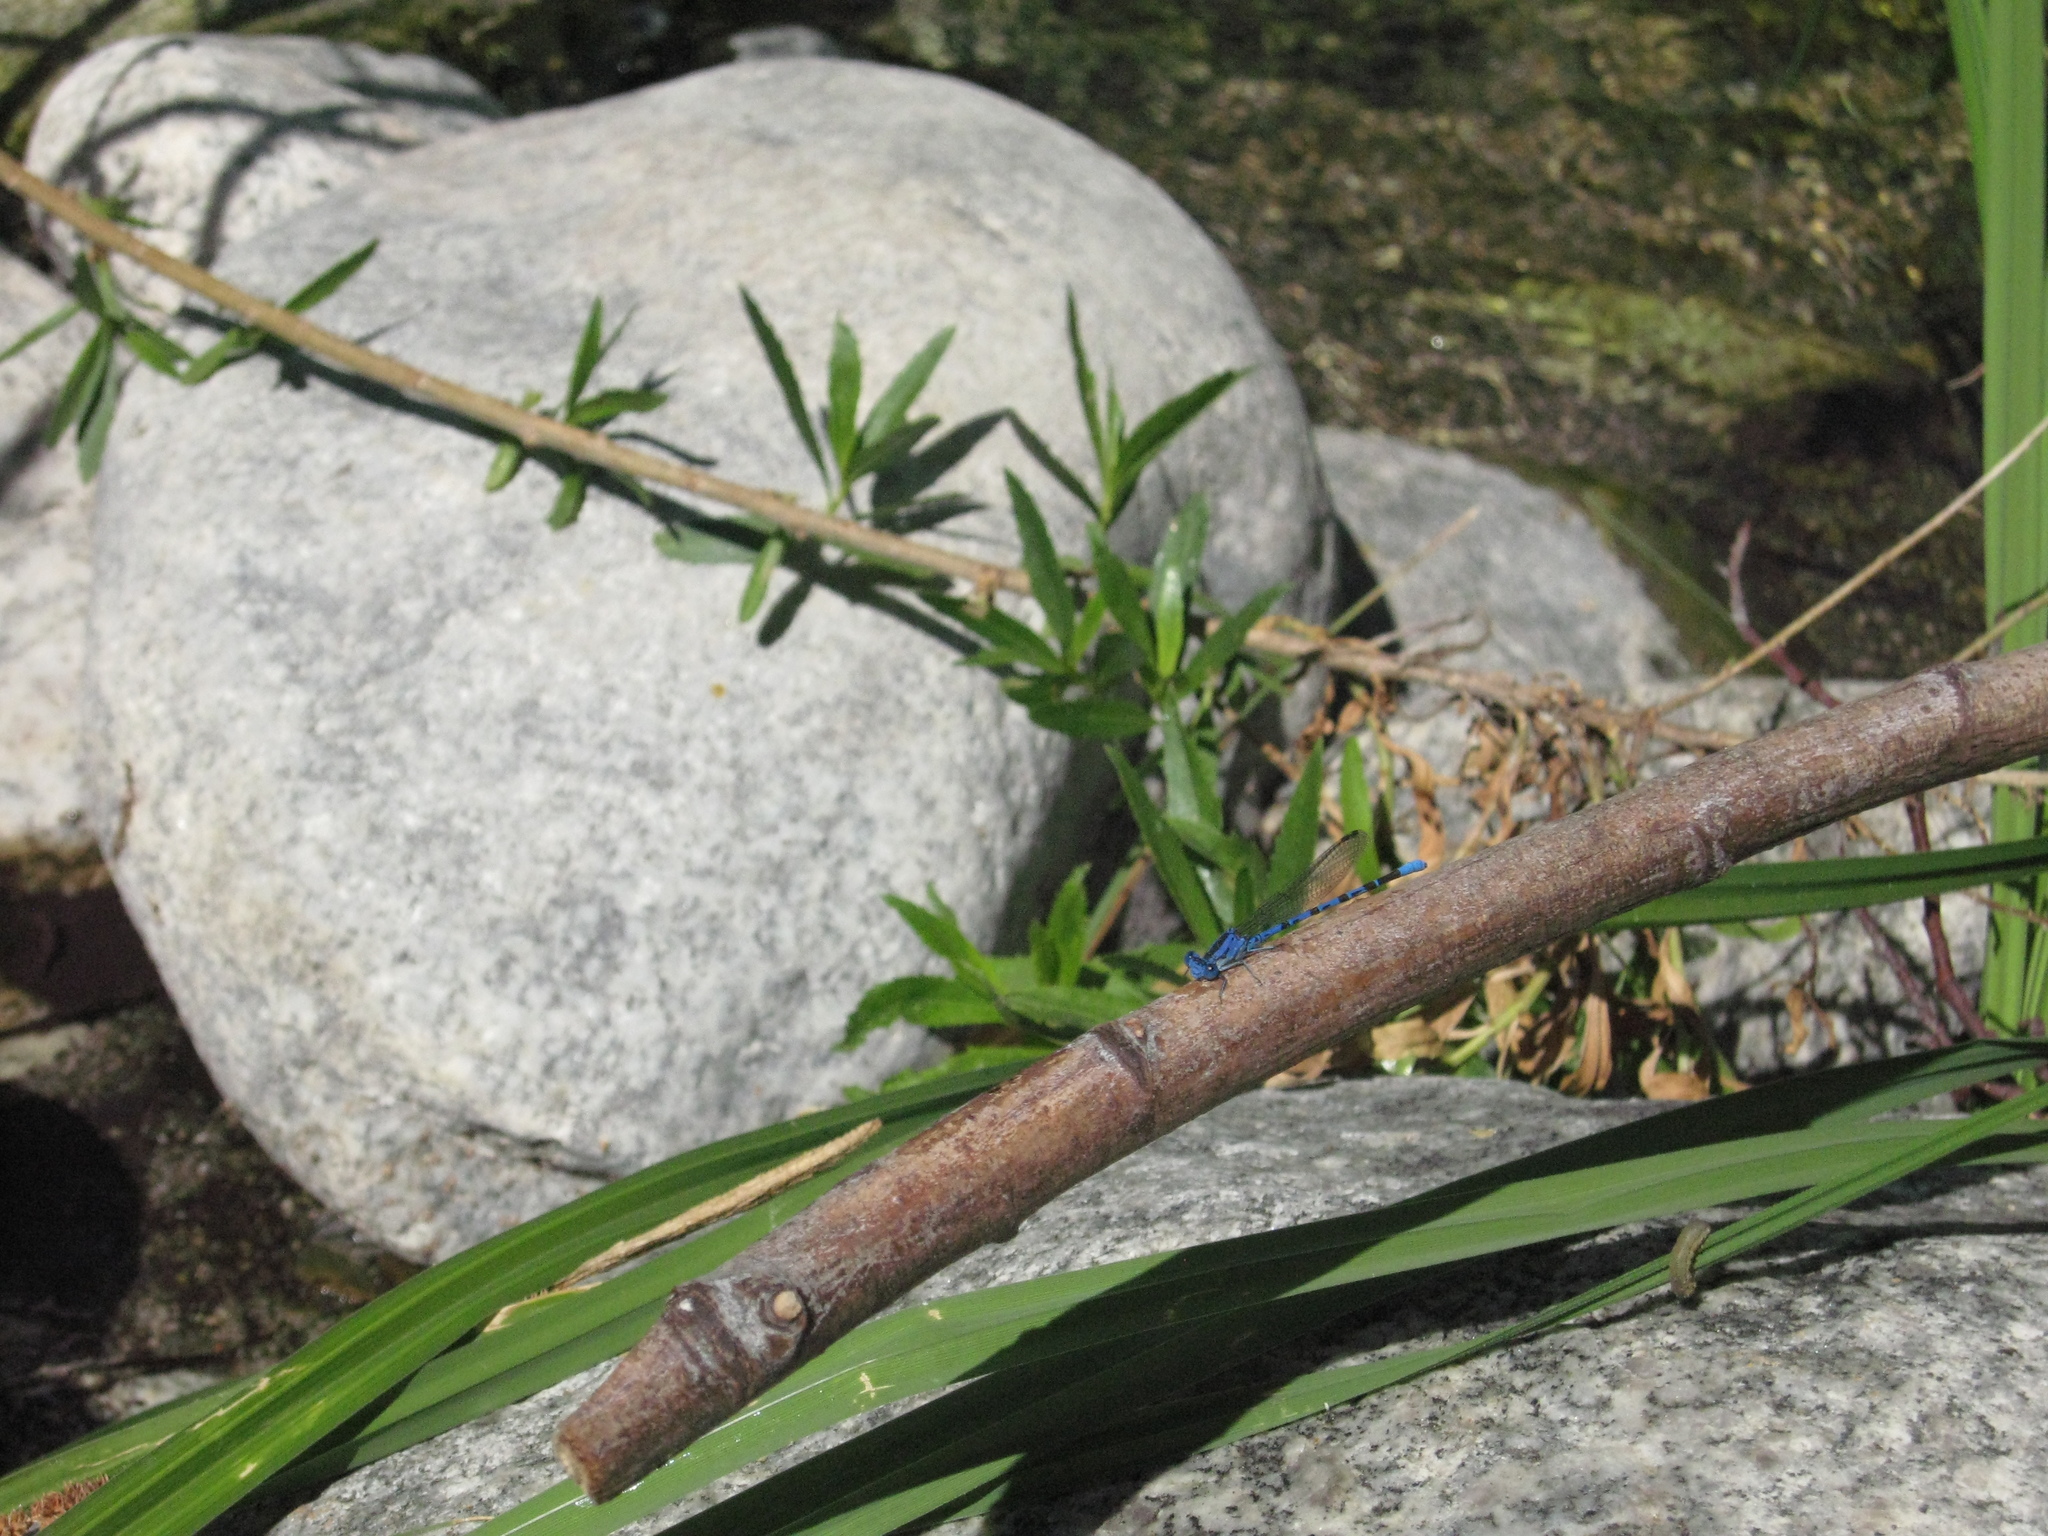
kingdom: Animalia
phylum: Arthropoda
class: Insecta
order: Odonata
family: Coenagrionidae
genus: Argia
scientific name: Argia vivida
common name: Vivid dancer
